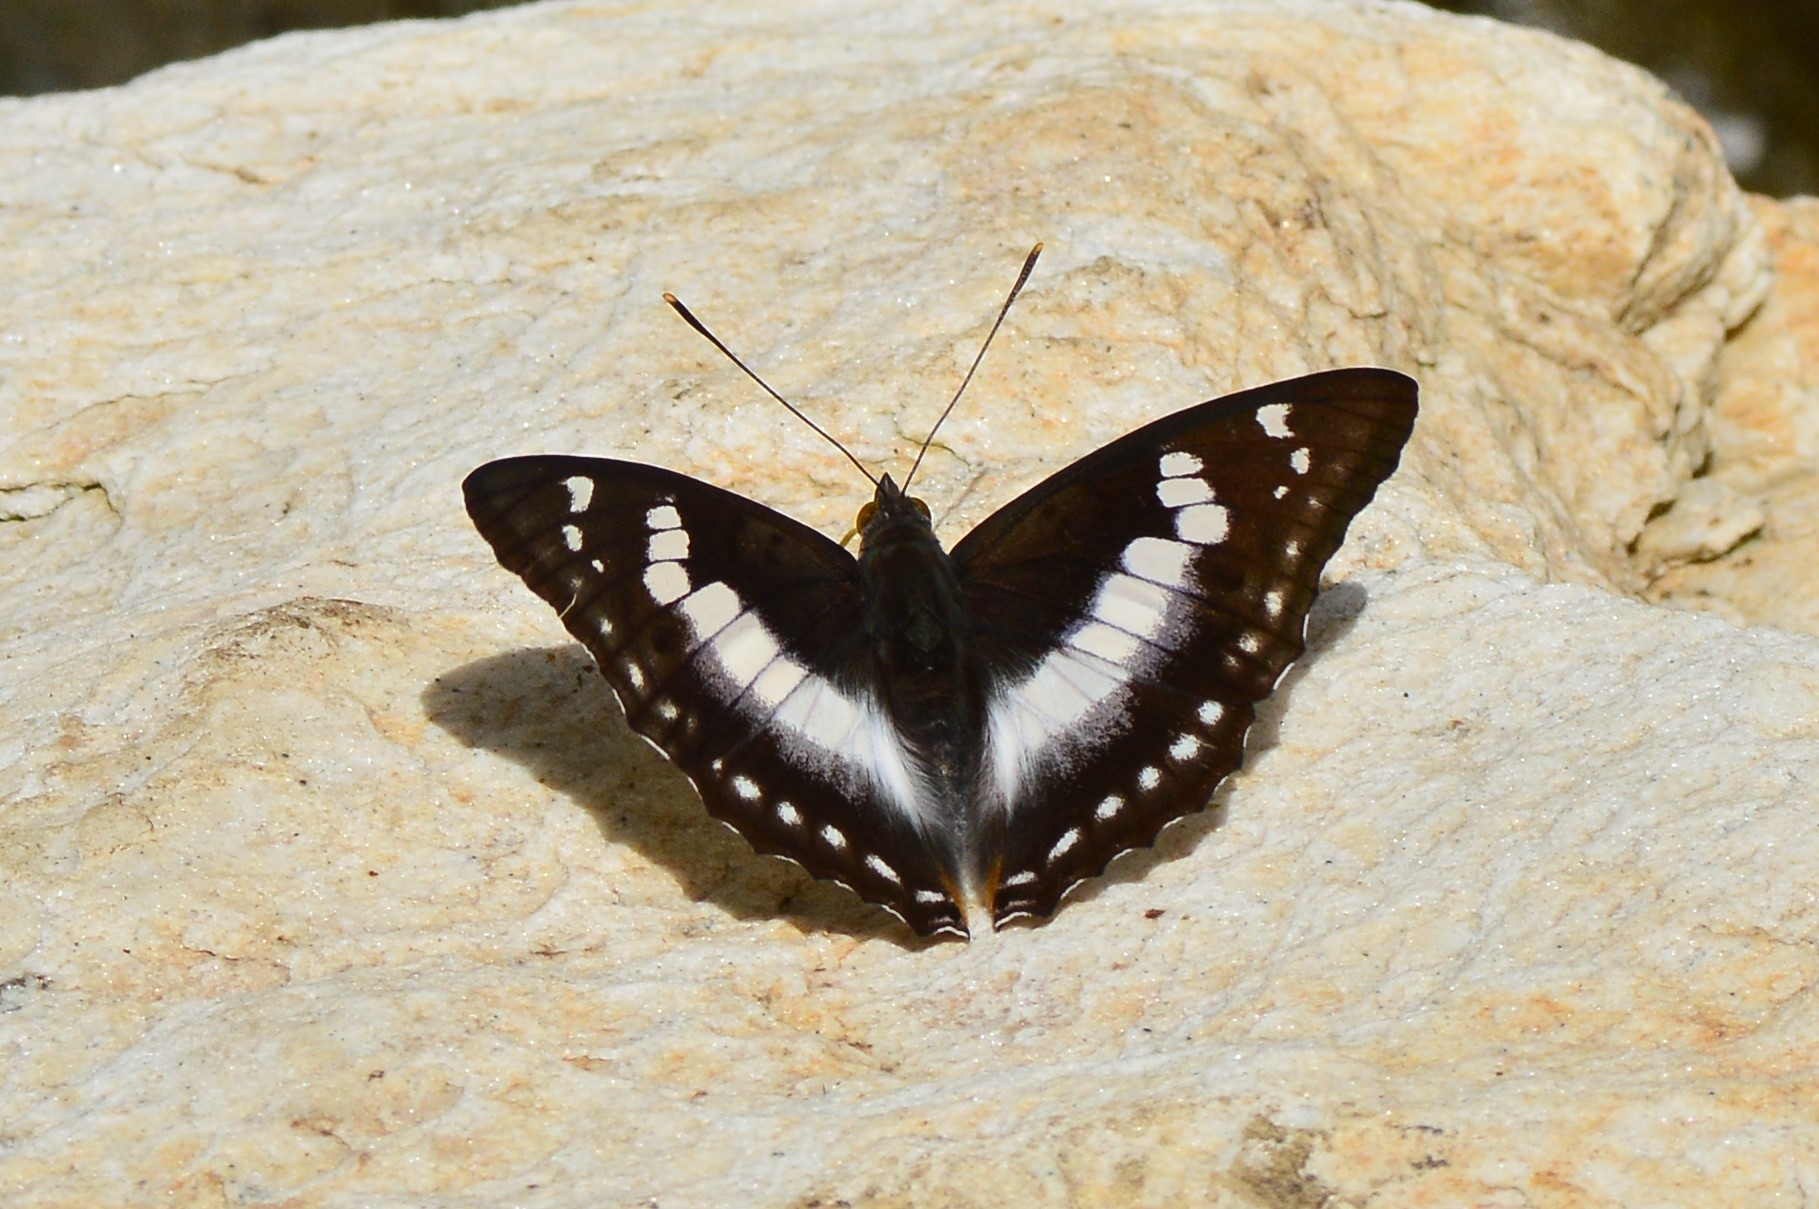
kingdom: Animalia
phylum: Arthropoda
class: Insecta
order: Lepidoptera
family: Nymphalidae
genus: Apatura
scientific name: Apatura Mimathyma ambica
